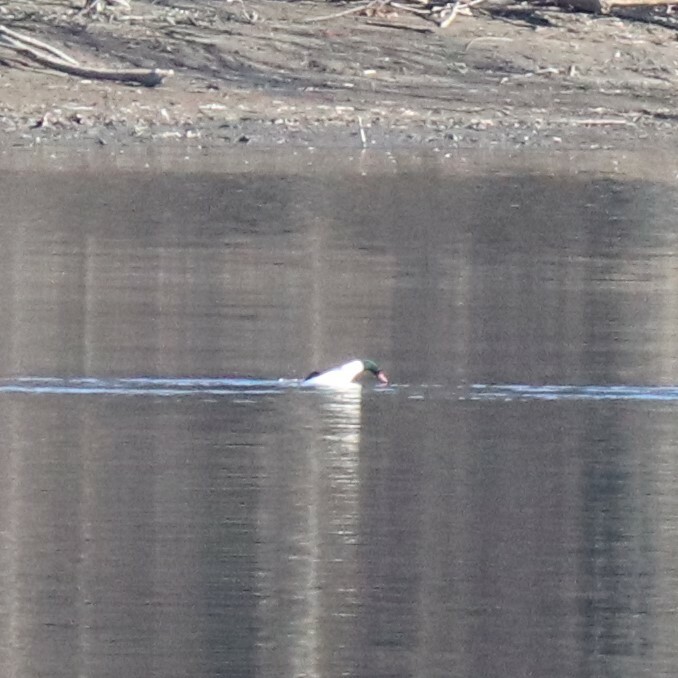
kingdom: Animalia
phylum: Chordata
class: Aves
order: Anseriformes
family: Anatidae
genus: Mergus
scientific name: Mergus merganser
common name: Common merganser
